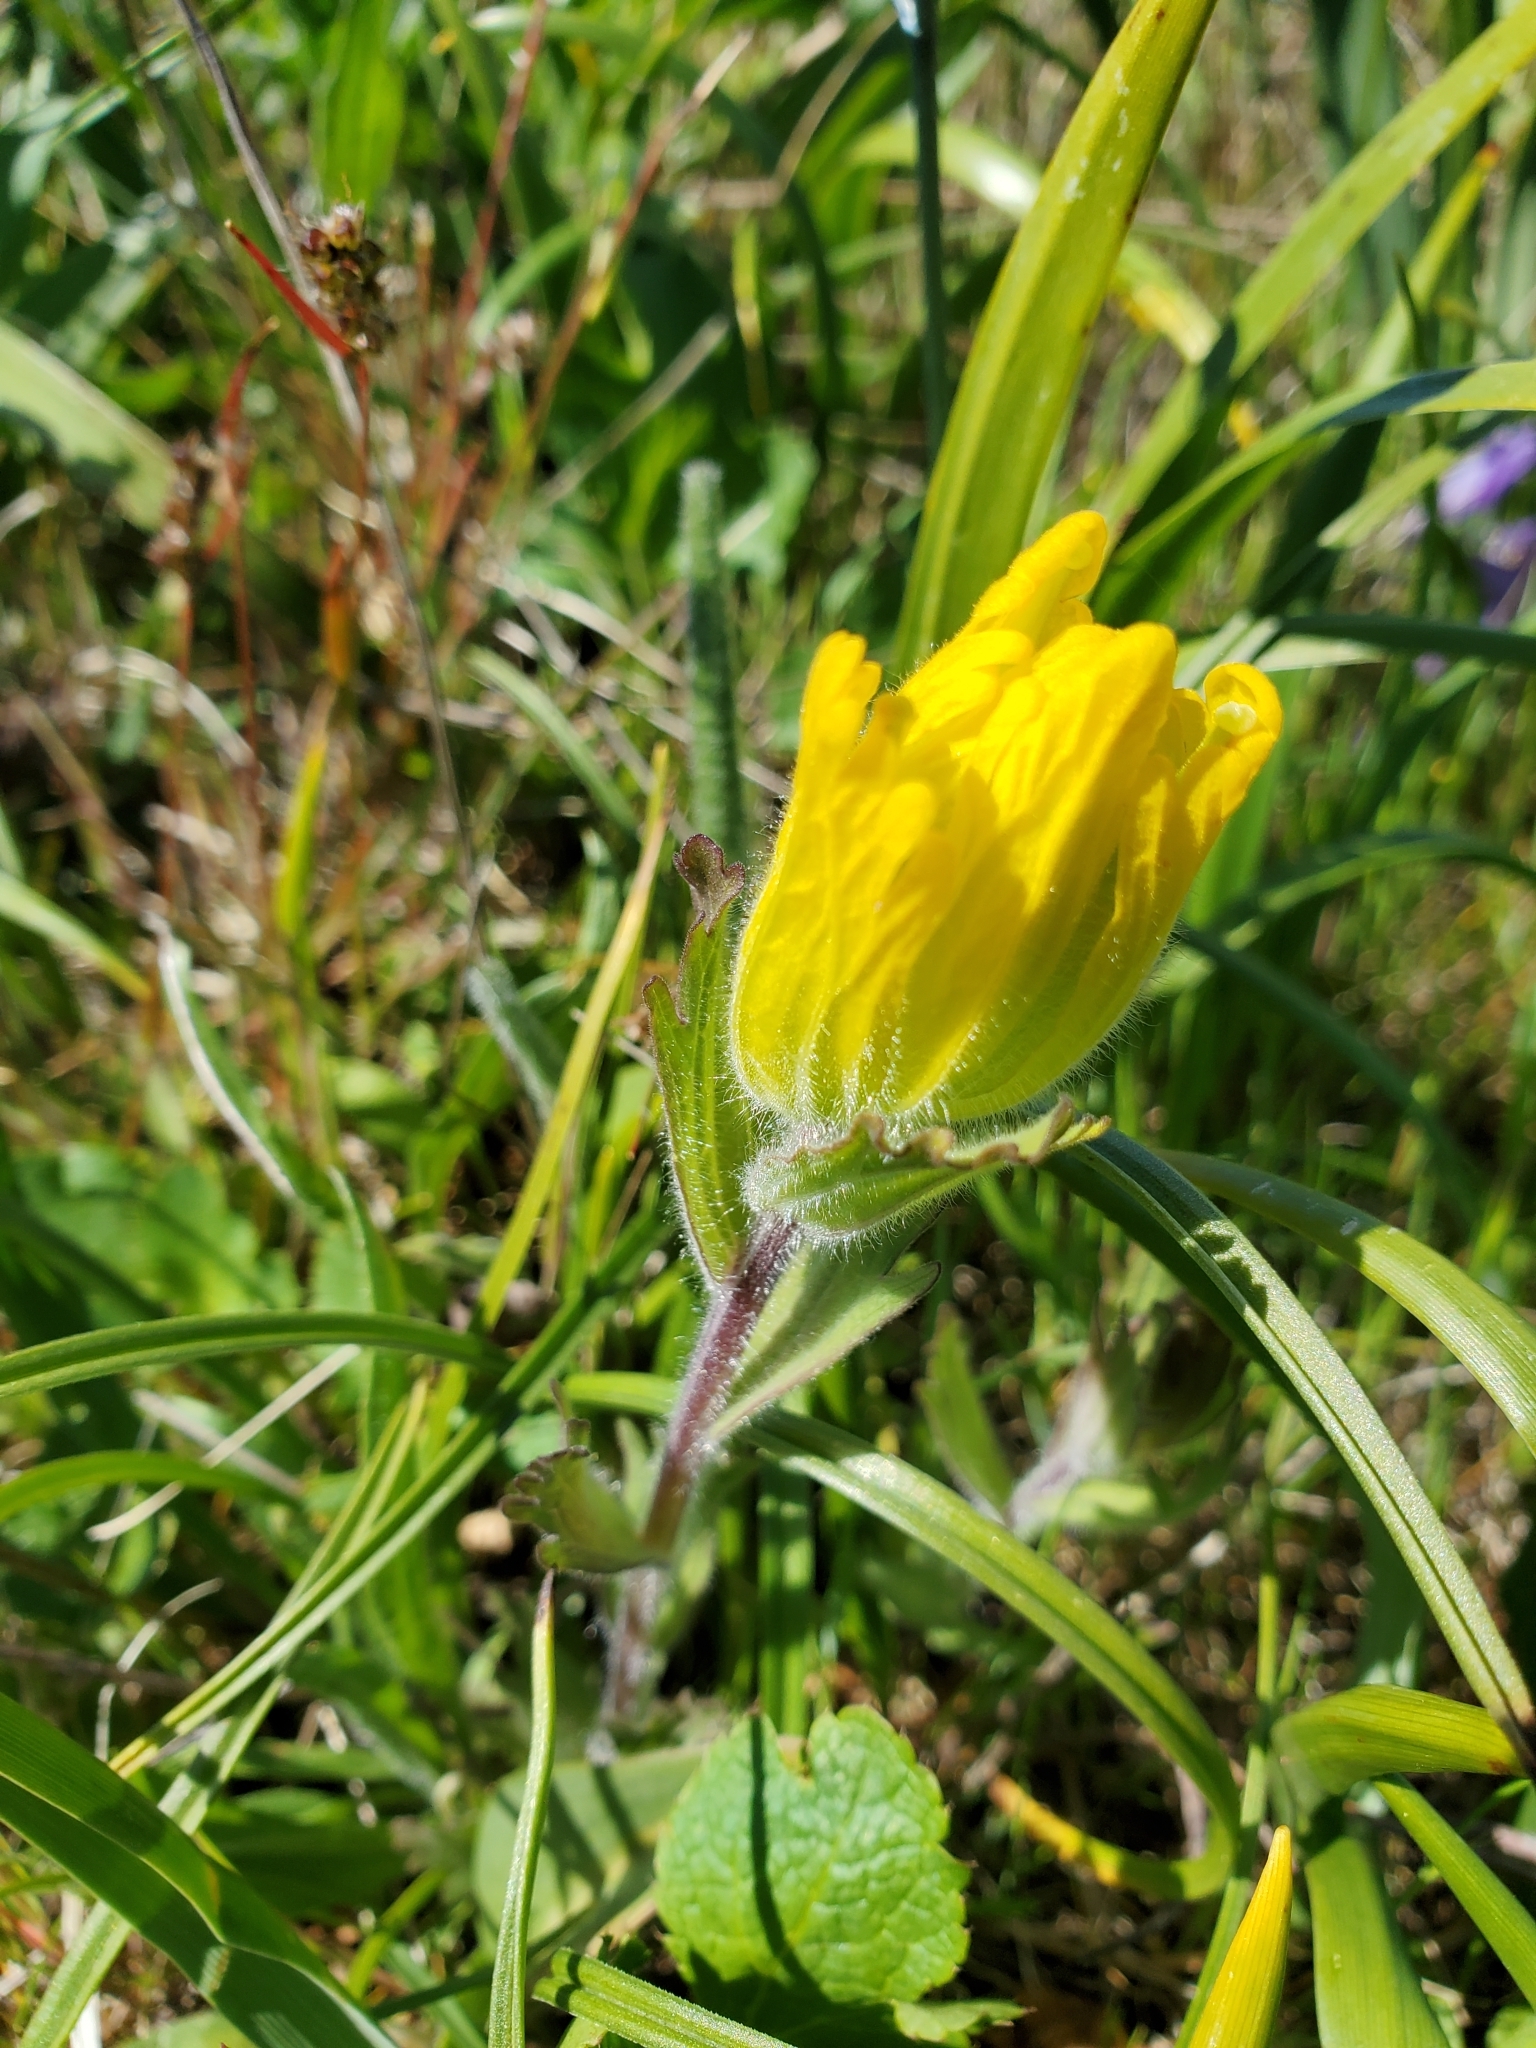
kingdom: Plantae
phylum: Tracheophyta
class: Magnoliopsida
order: Lamiales
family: Orobanchaceae
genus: Castilleja
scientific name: Castilleja levisecta
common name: Golden paintbrush
